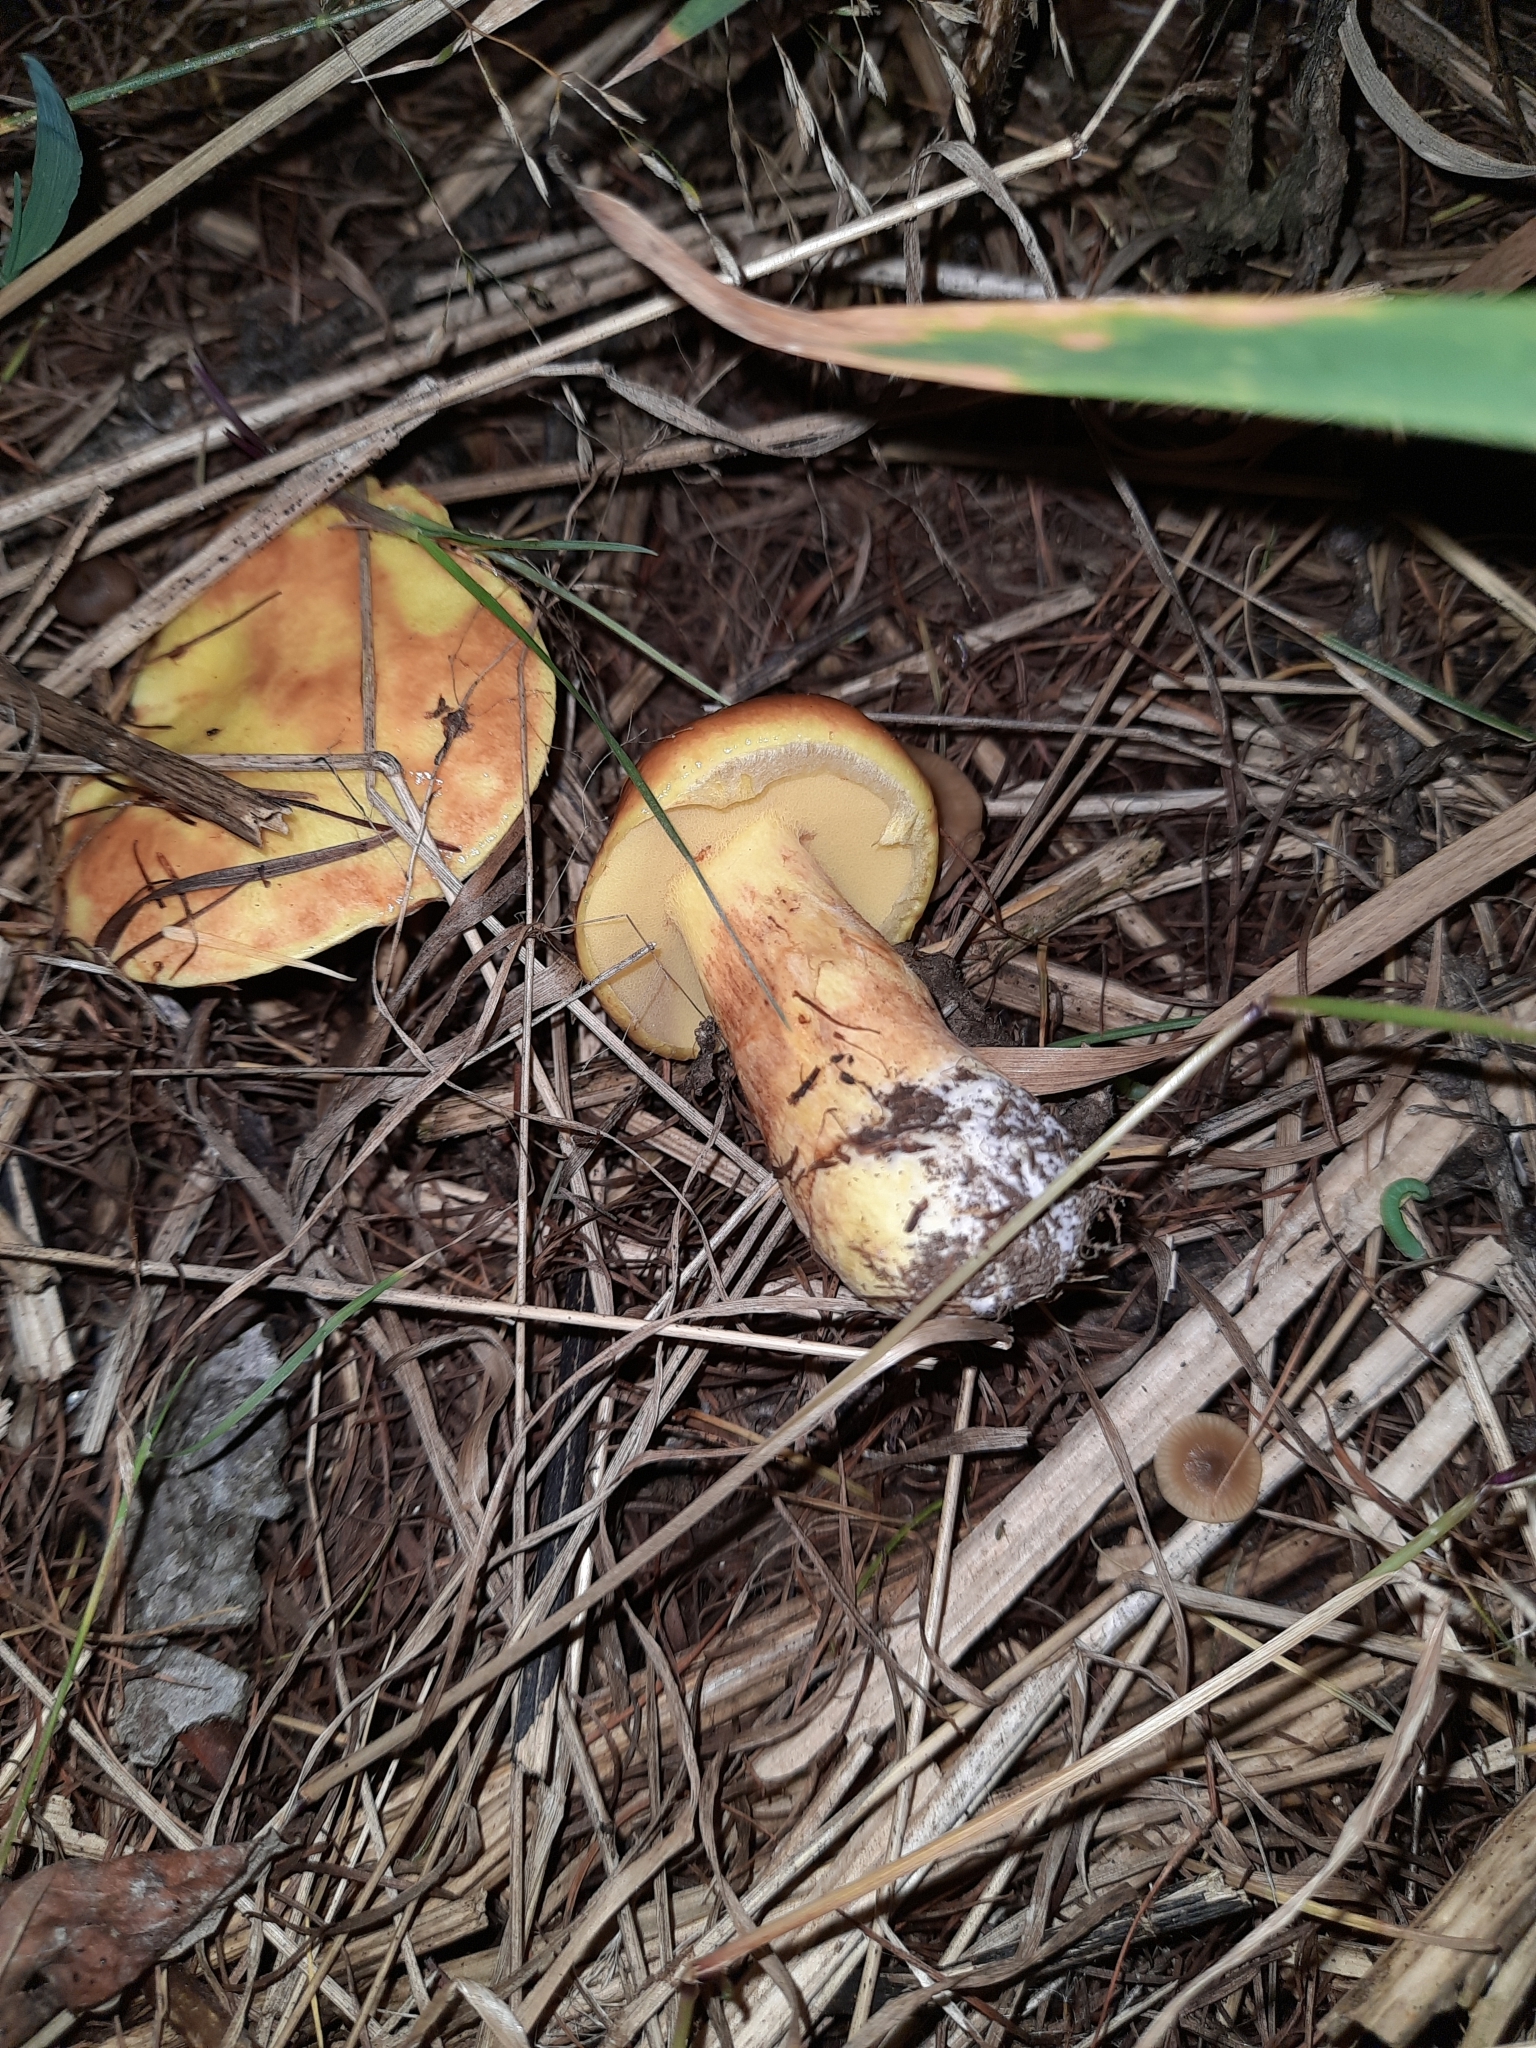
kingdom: Fungi
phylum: Basidiomycota
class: Agaricomycetes
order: Boletales
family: Suillaceae
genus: Suillus
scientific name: Suillus grevillei
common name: Larch bolete
